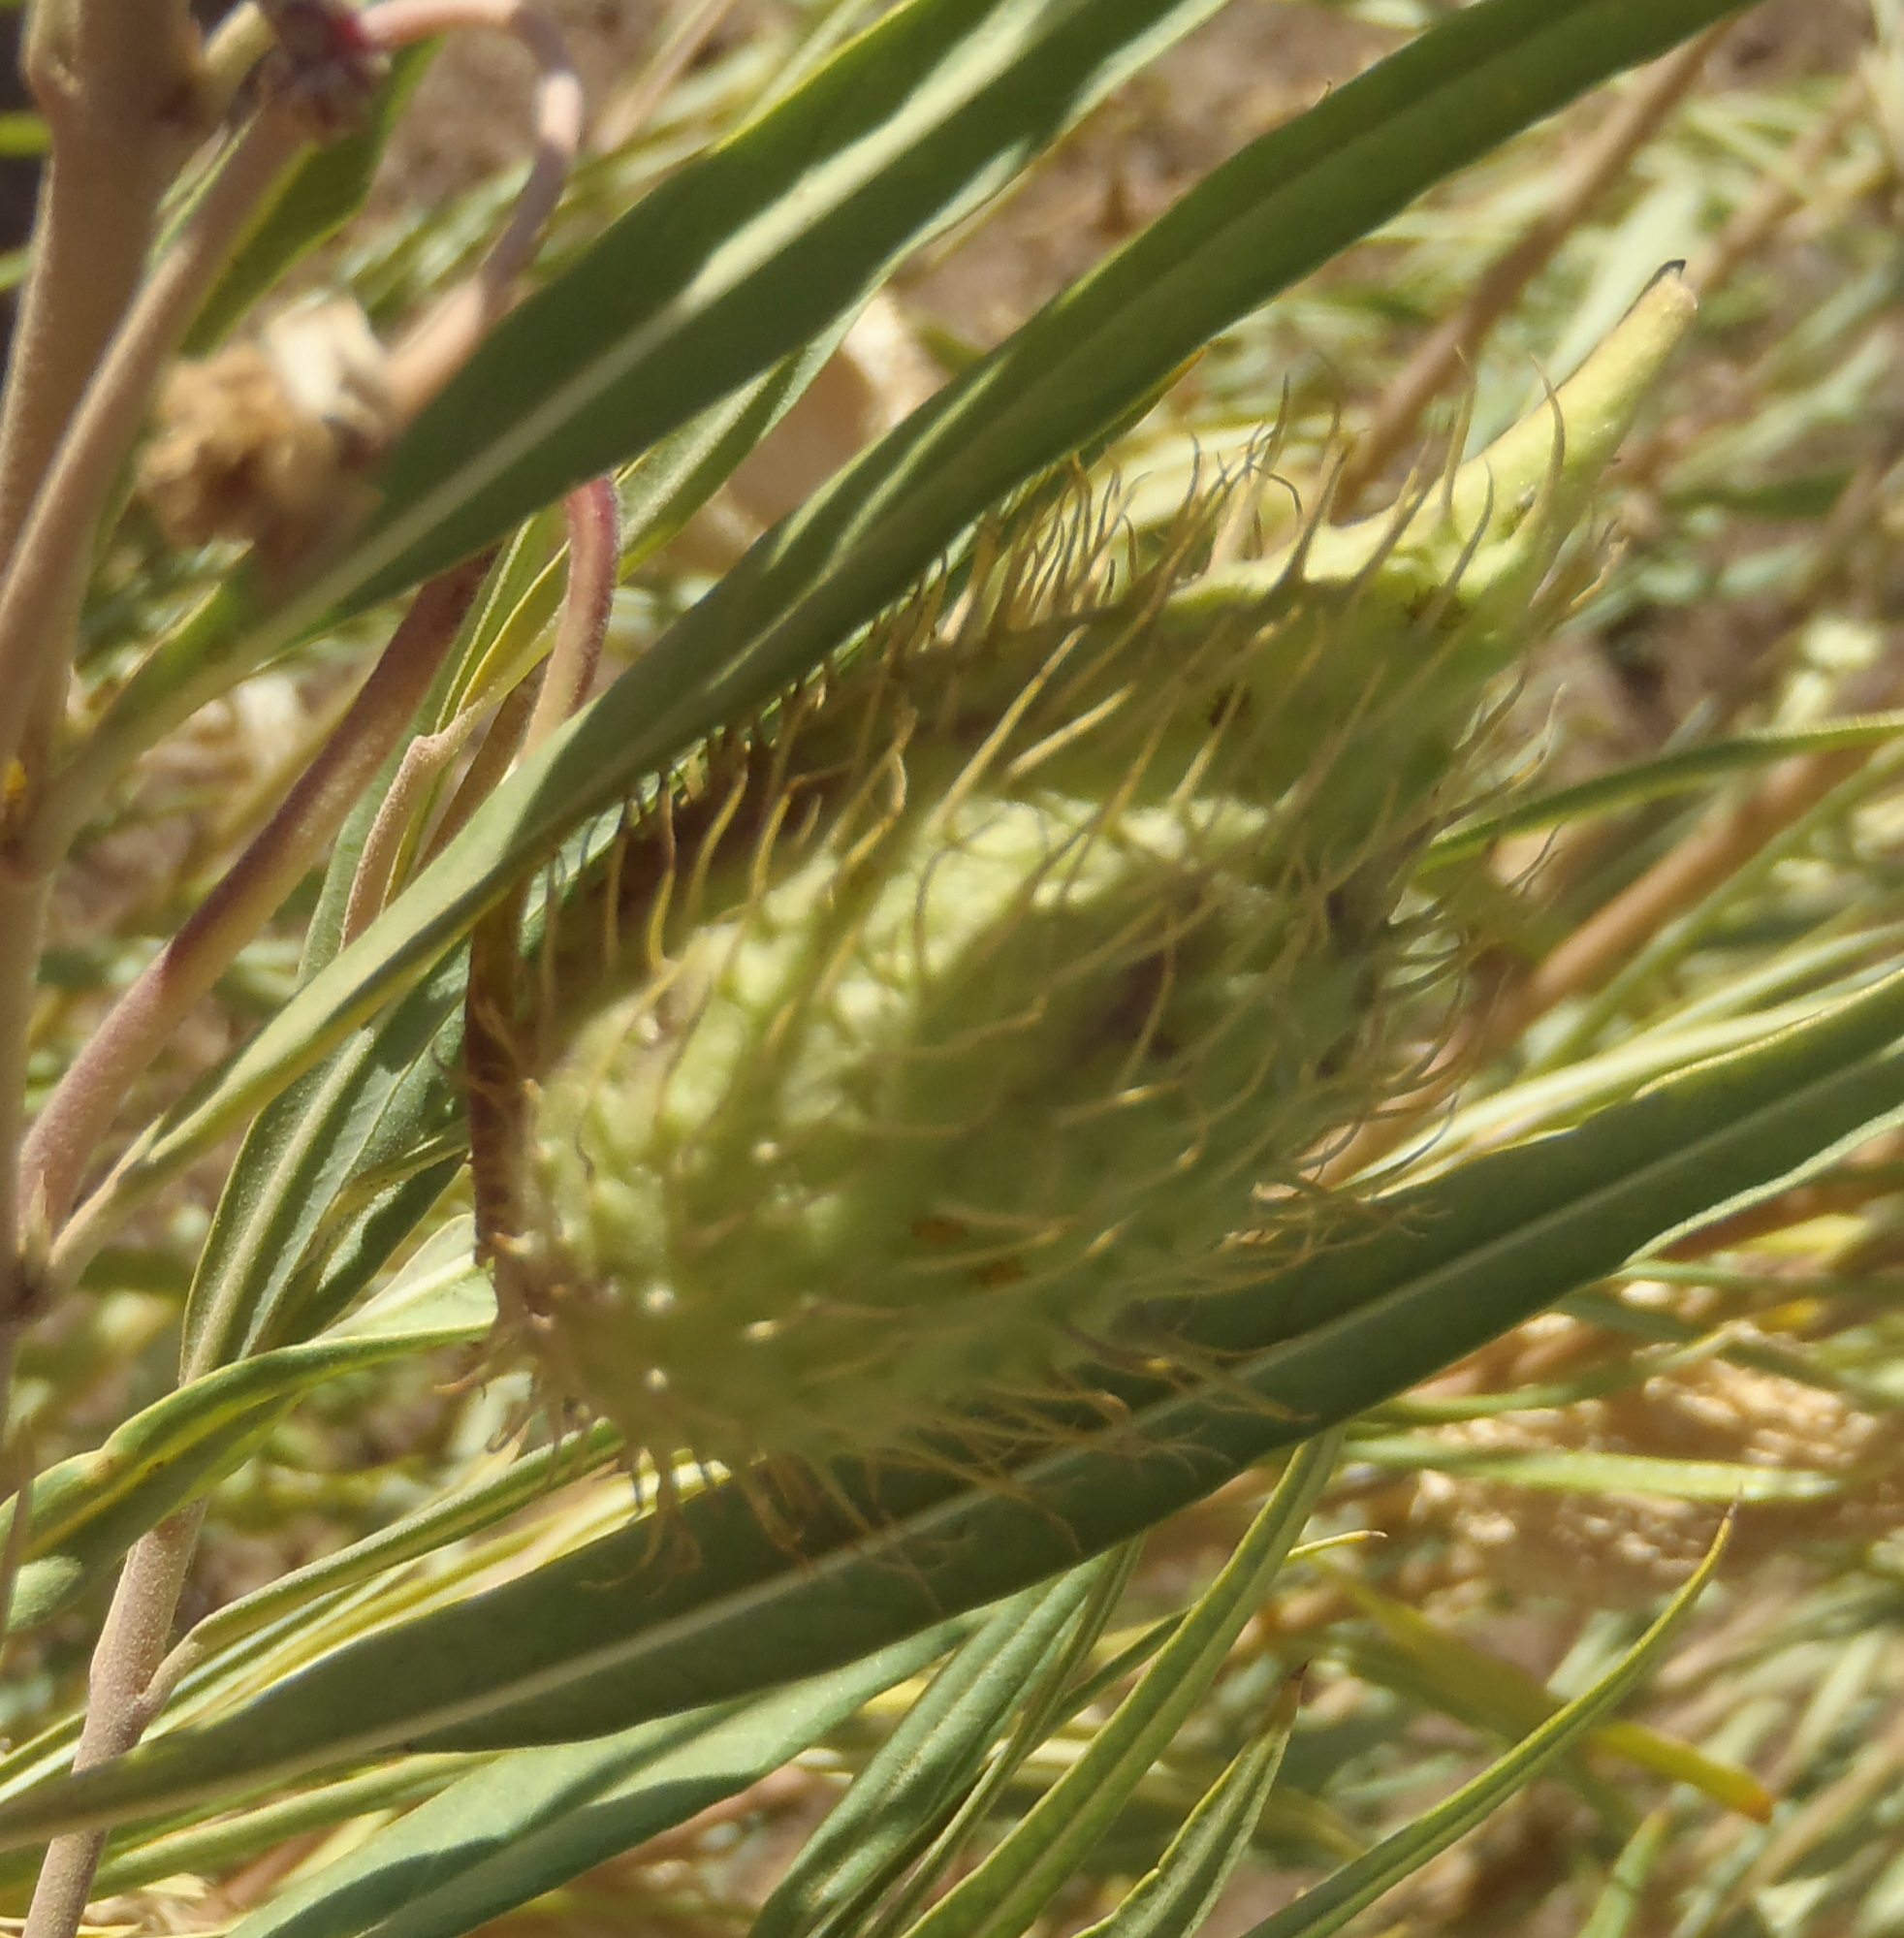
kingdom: Plantae
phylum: Tracheophyta
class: Magnoliopsida
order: Gentianales
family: Apocynaceae
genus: Gomphocarpus
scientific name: Gomphocarpus fruticosus
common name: Milkweed
